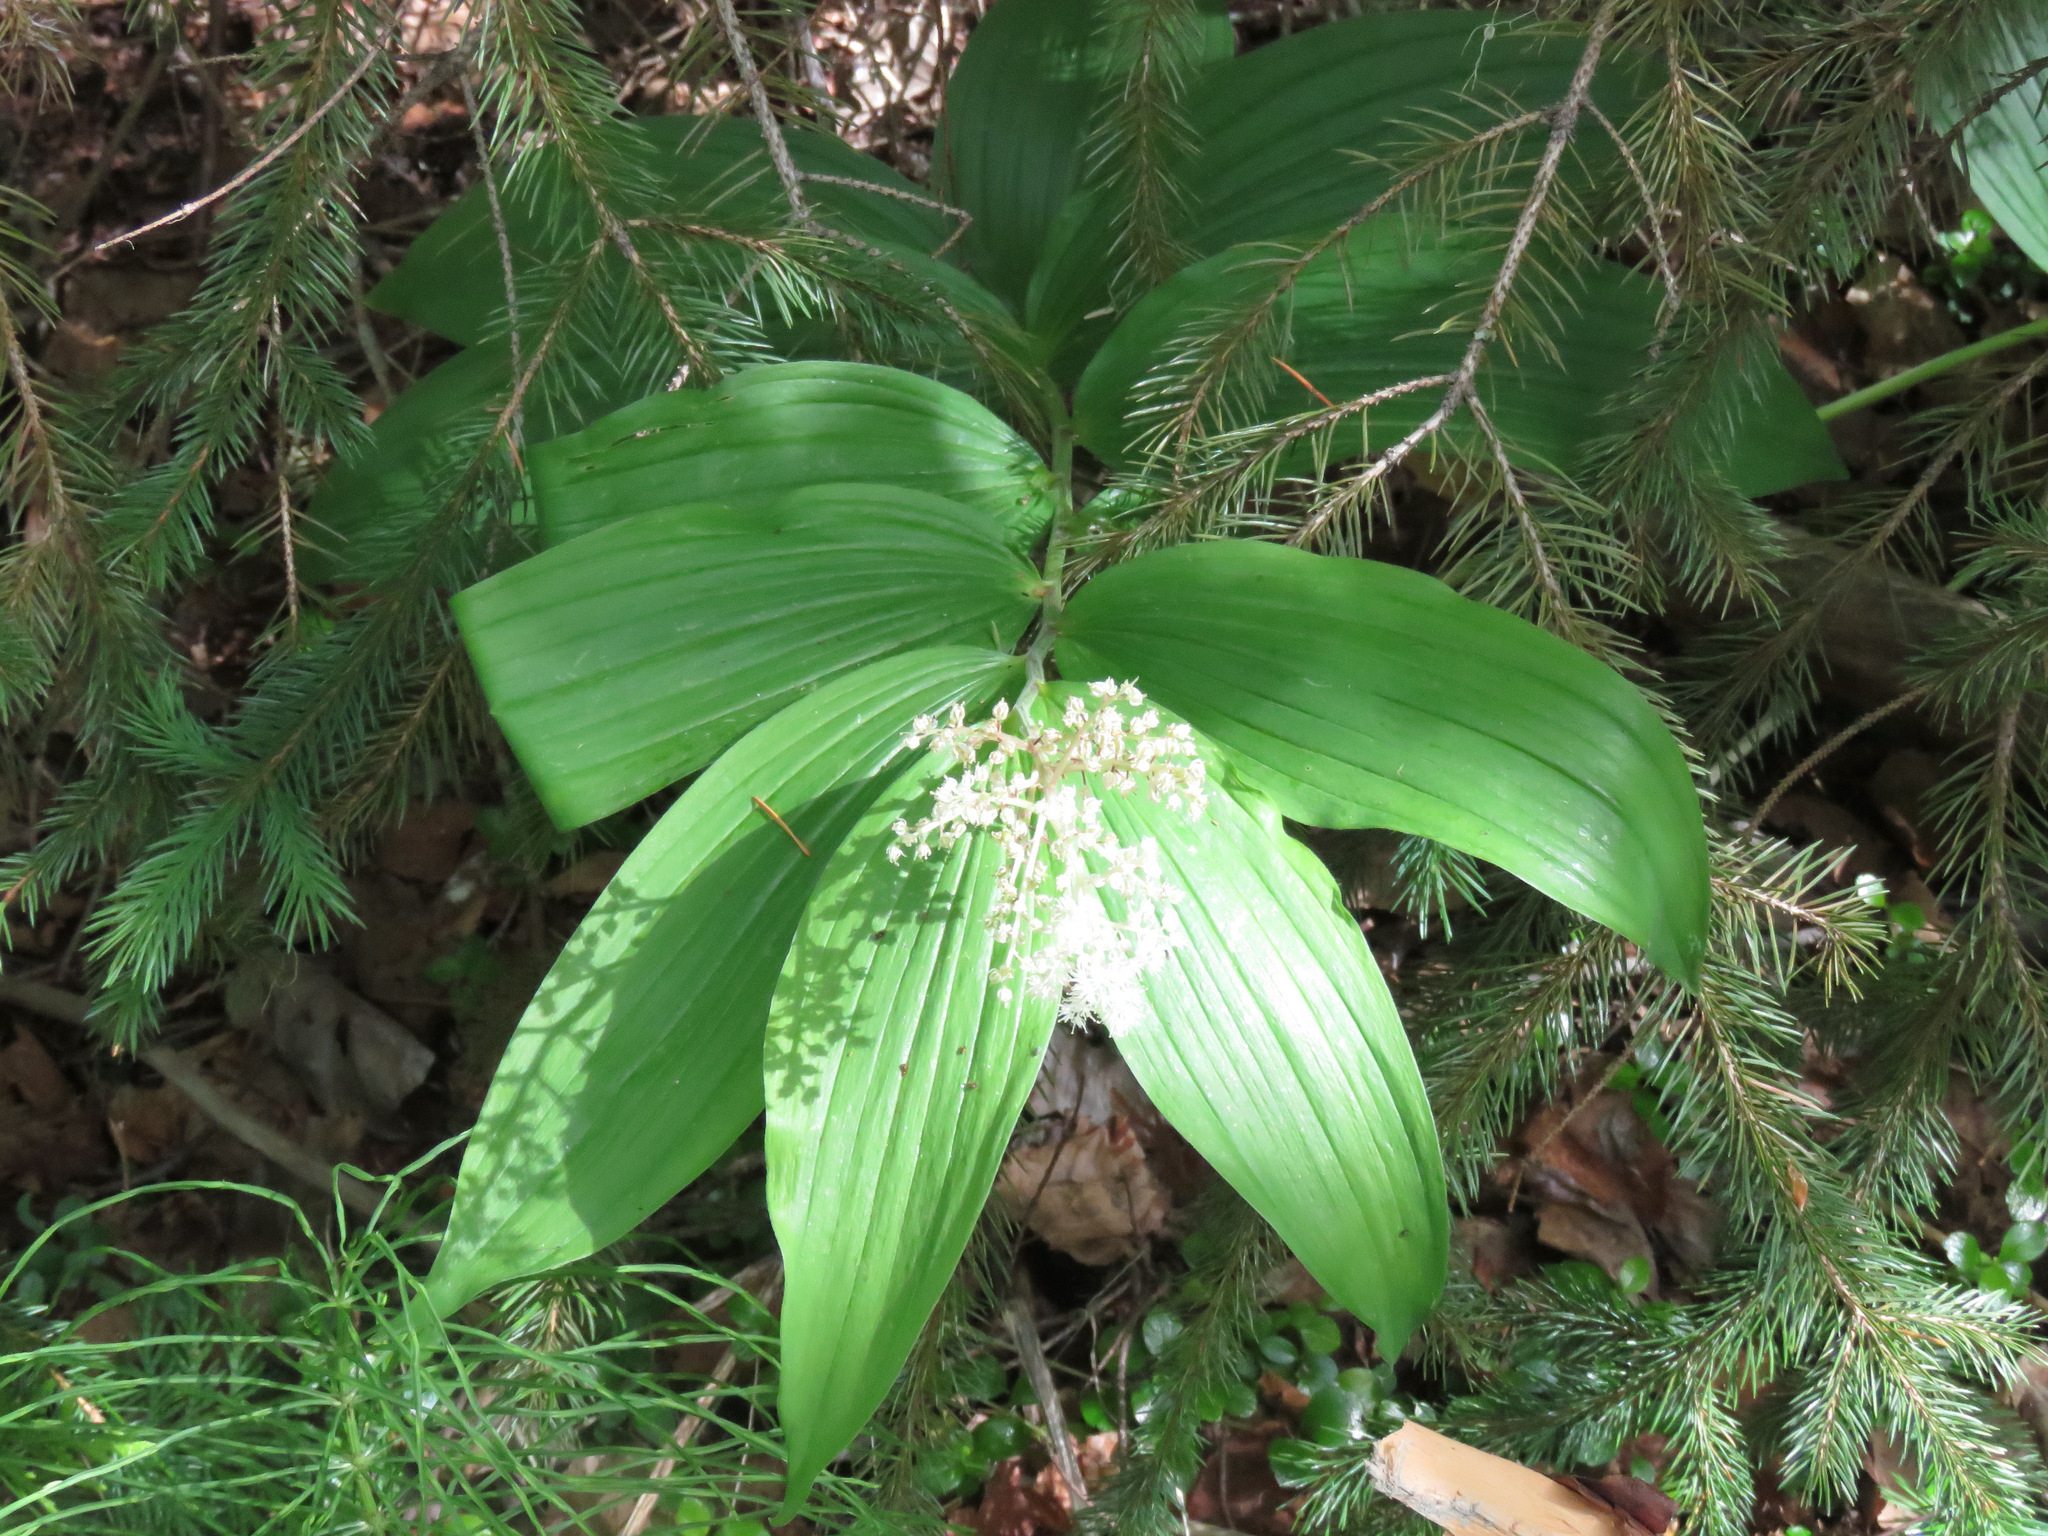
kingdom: Plantae
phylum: Tracheophyta
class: Liliopsida
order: Asparagales
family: Asparagaceae
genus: Maianthemum
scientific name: Maianthemum racemosum
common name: False spikenard
